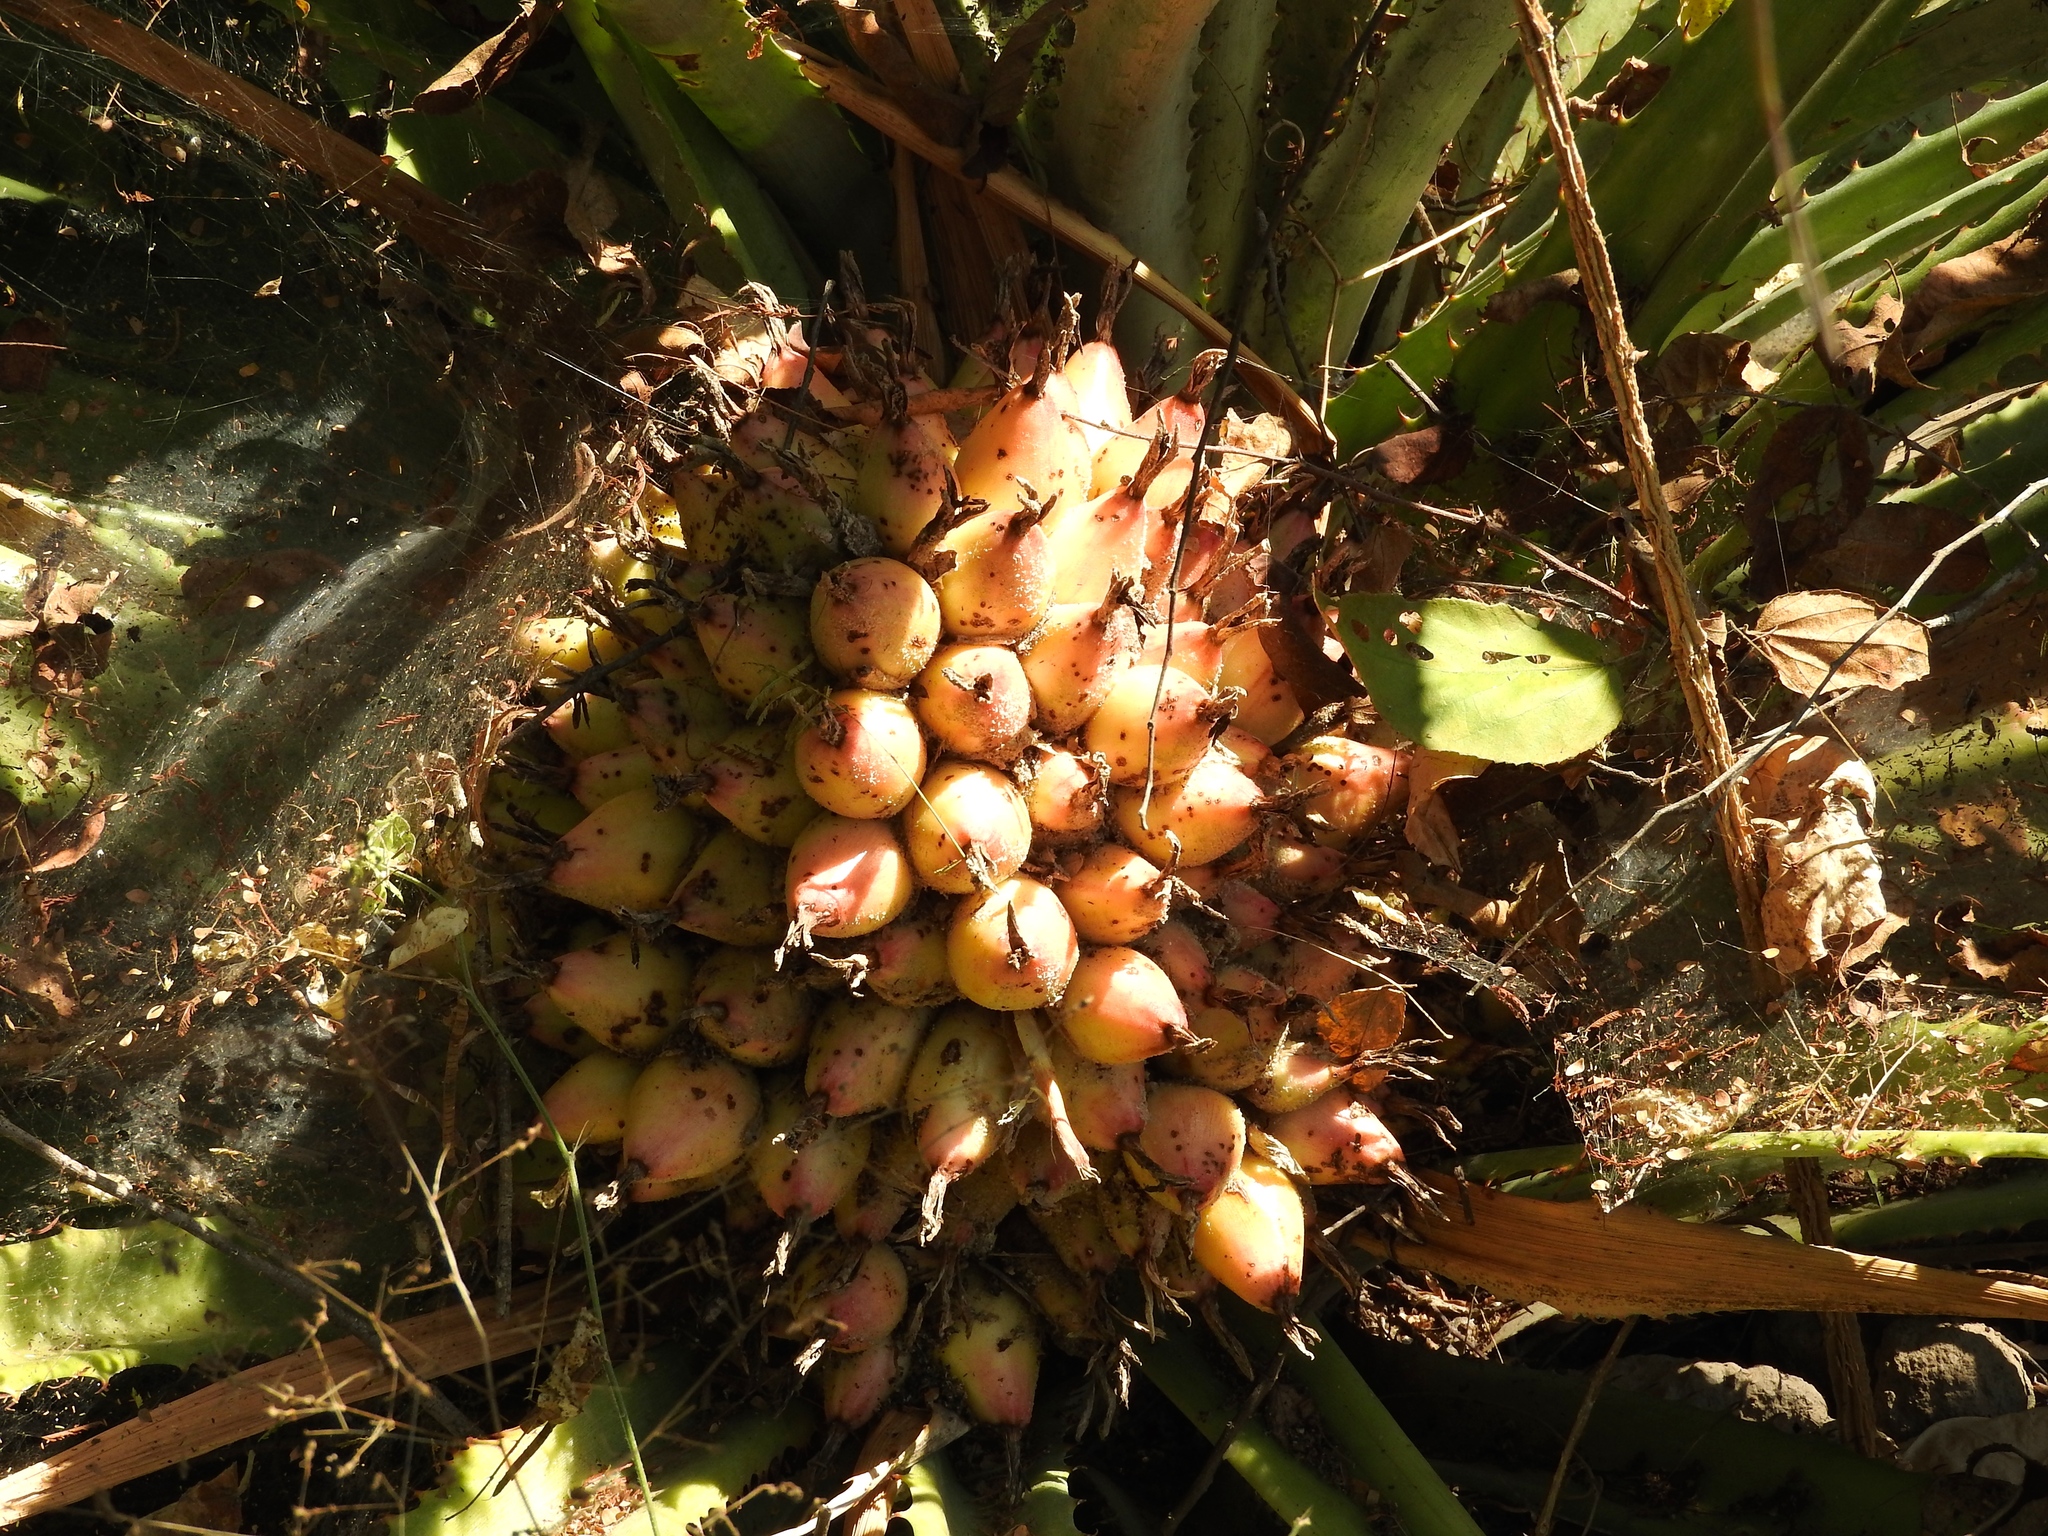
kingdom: Plantae
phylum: Tracheophyta
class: Liliopsida
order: Poales
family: Bromeliaceae
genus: Bromelia
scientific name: Bromelia hemisphaerica
